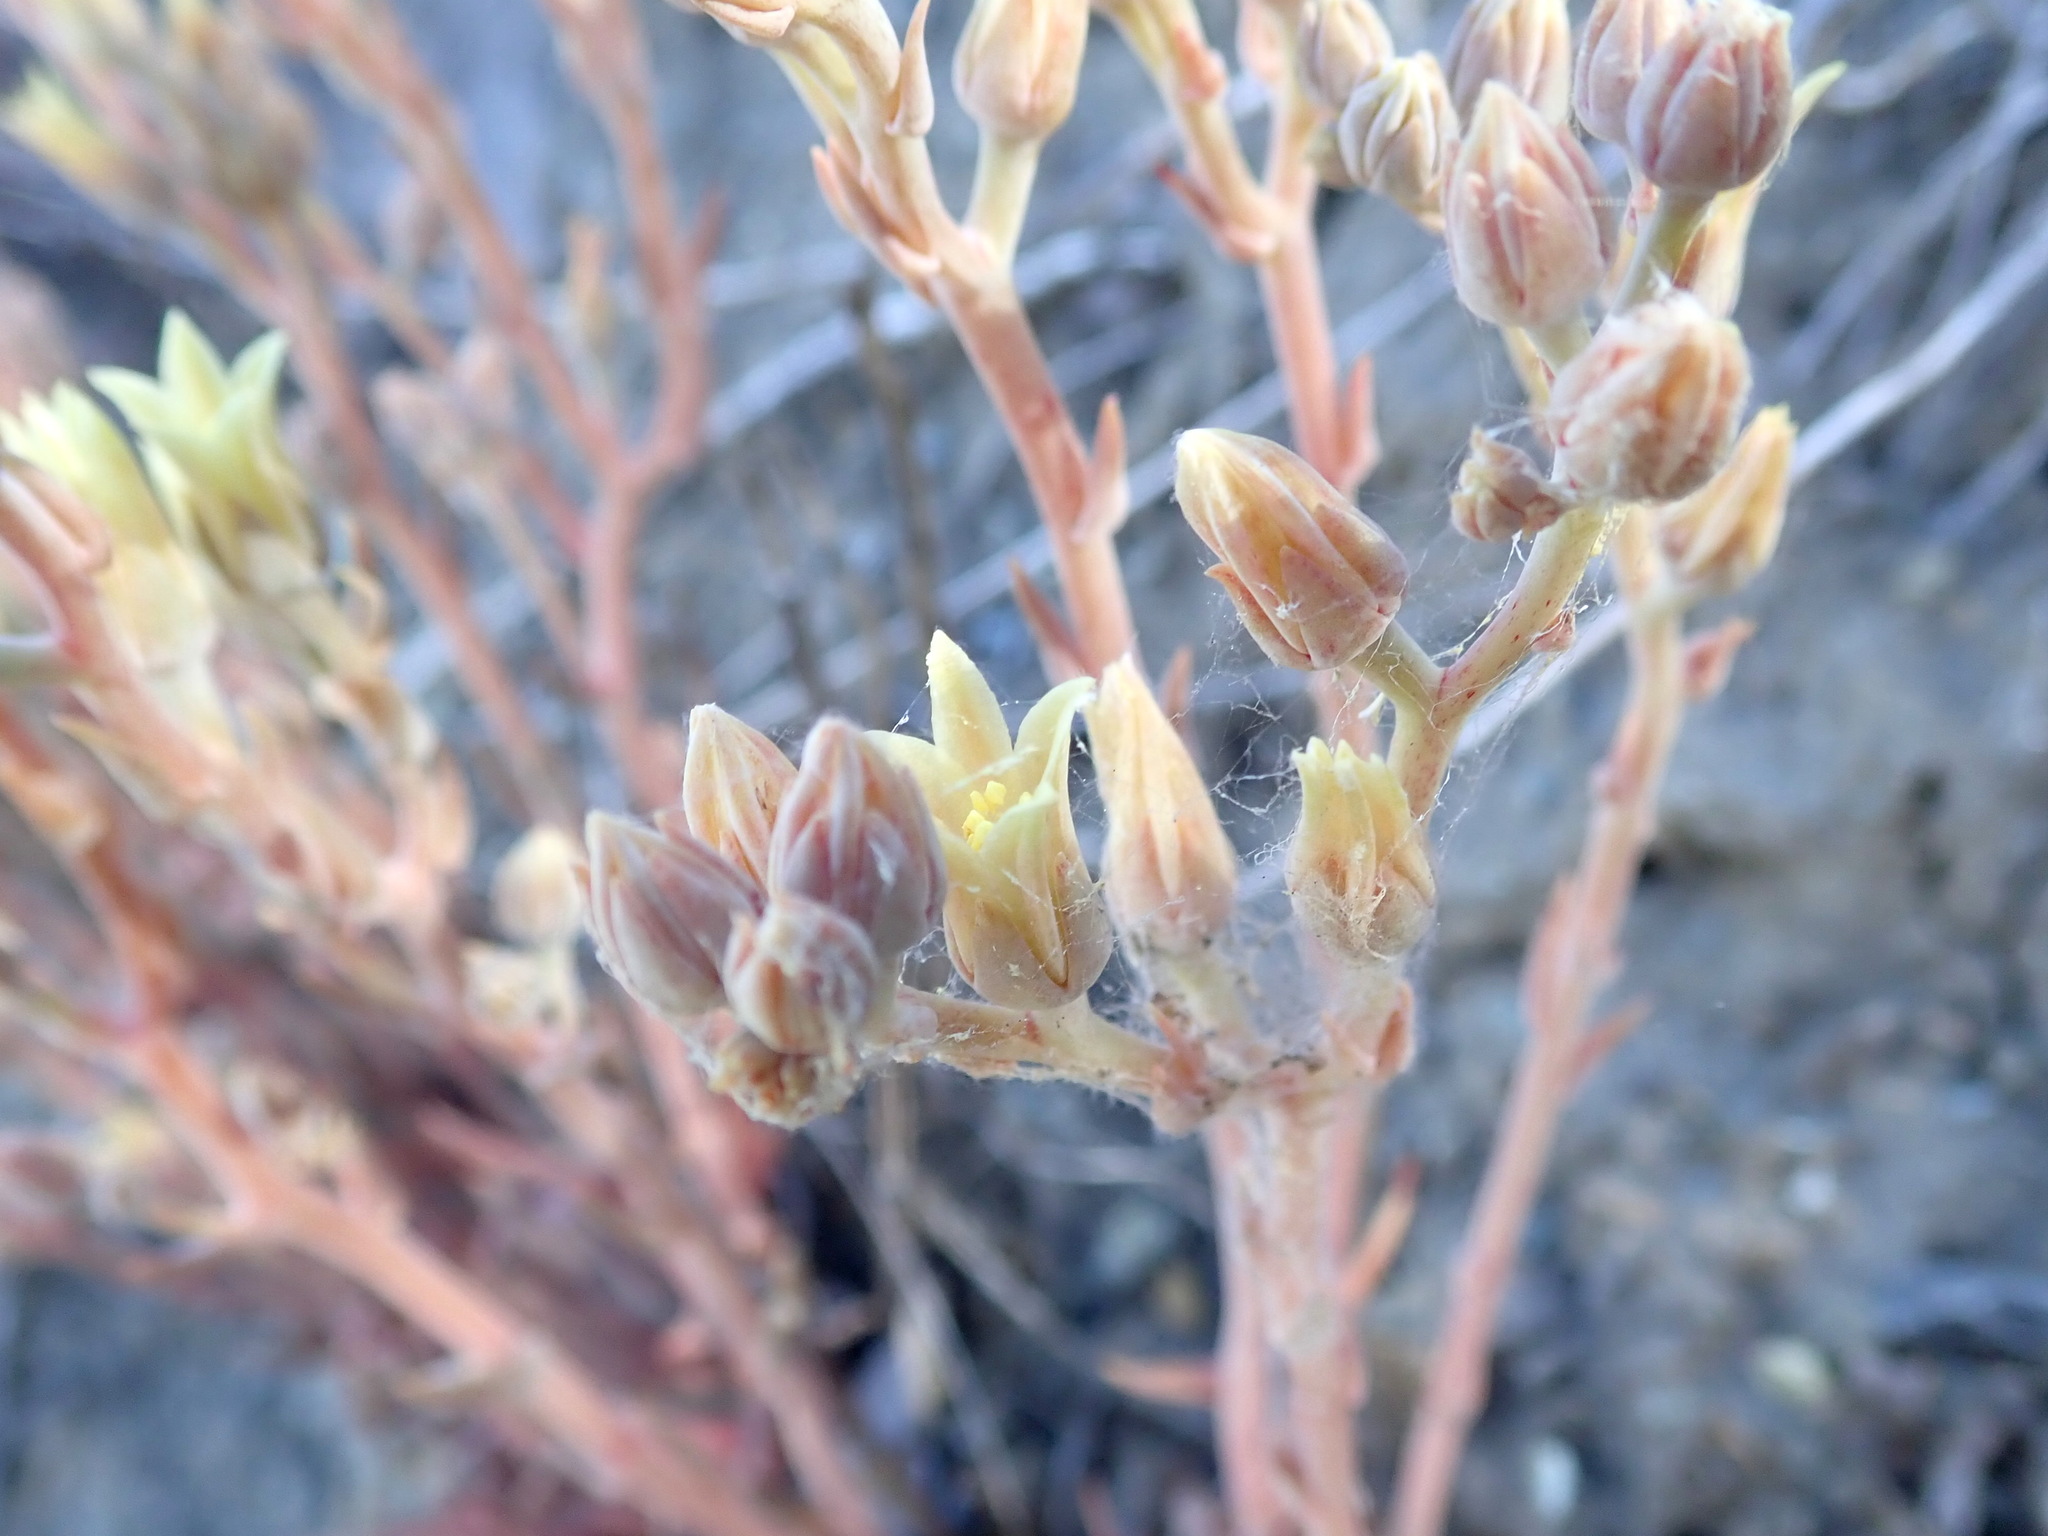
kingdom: Plantae
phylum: Tracheophyta
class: Magnoliopsida
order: Saxifragales
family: Crassulaceae
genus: Dudleya
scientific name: Dudleya abramsii
